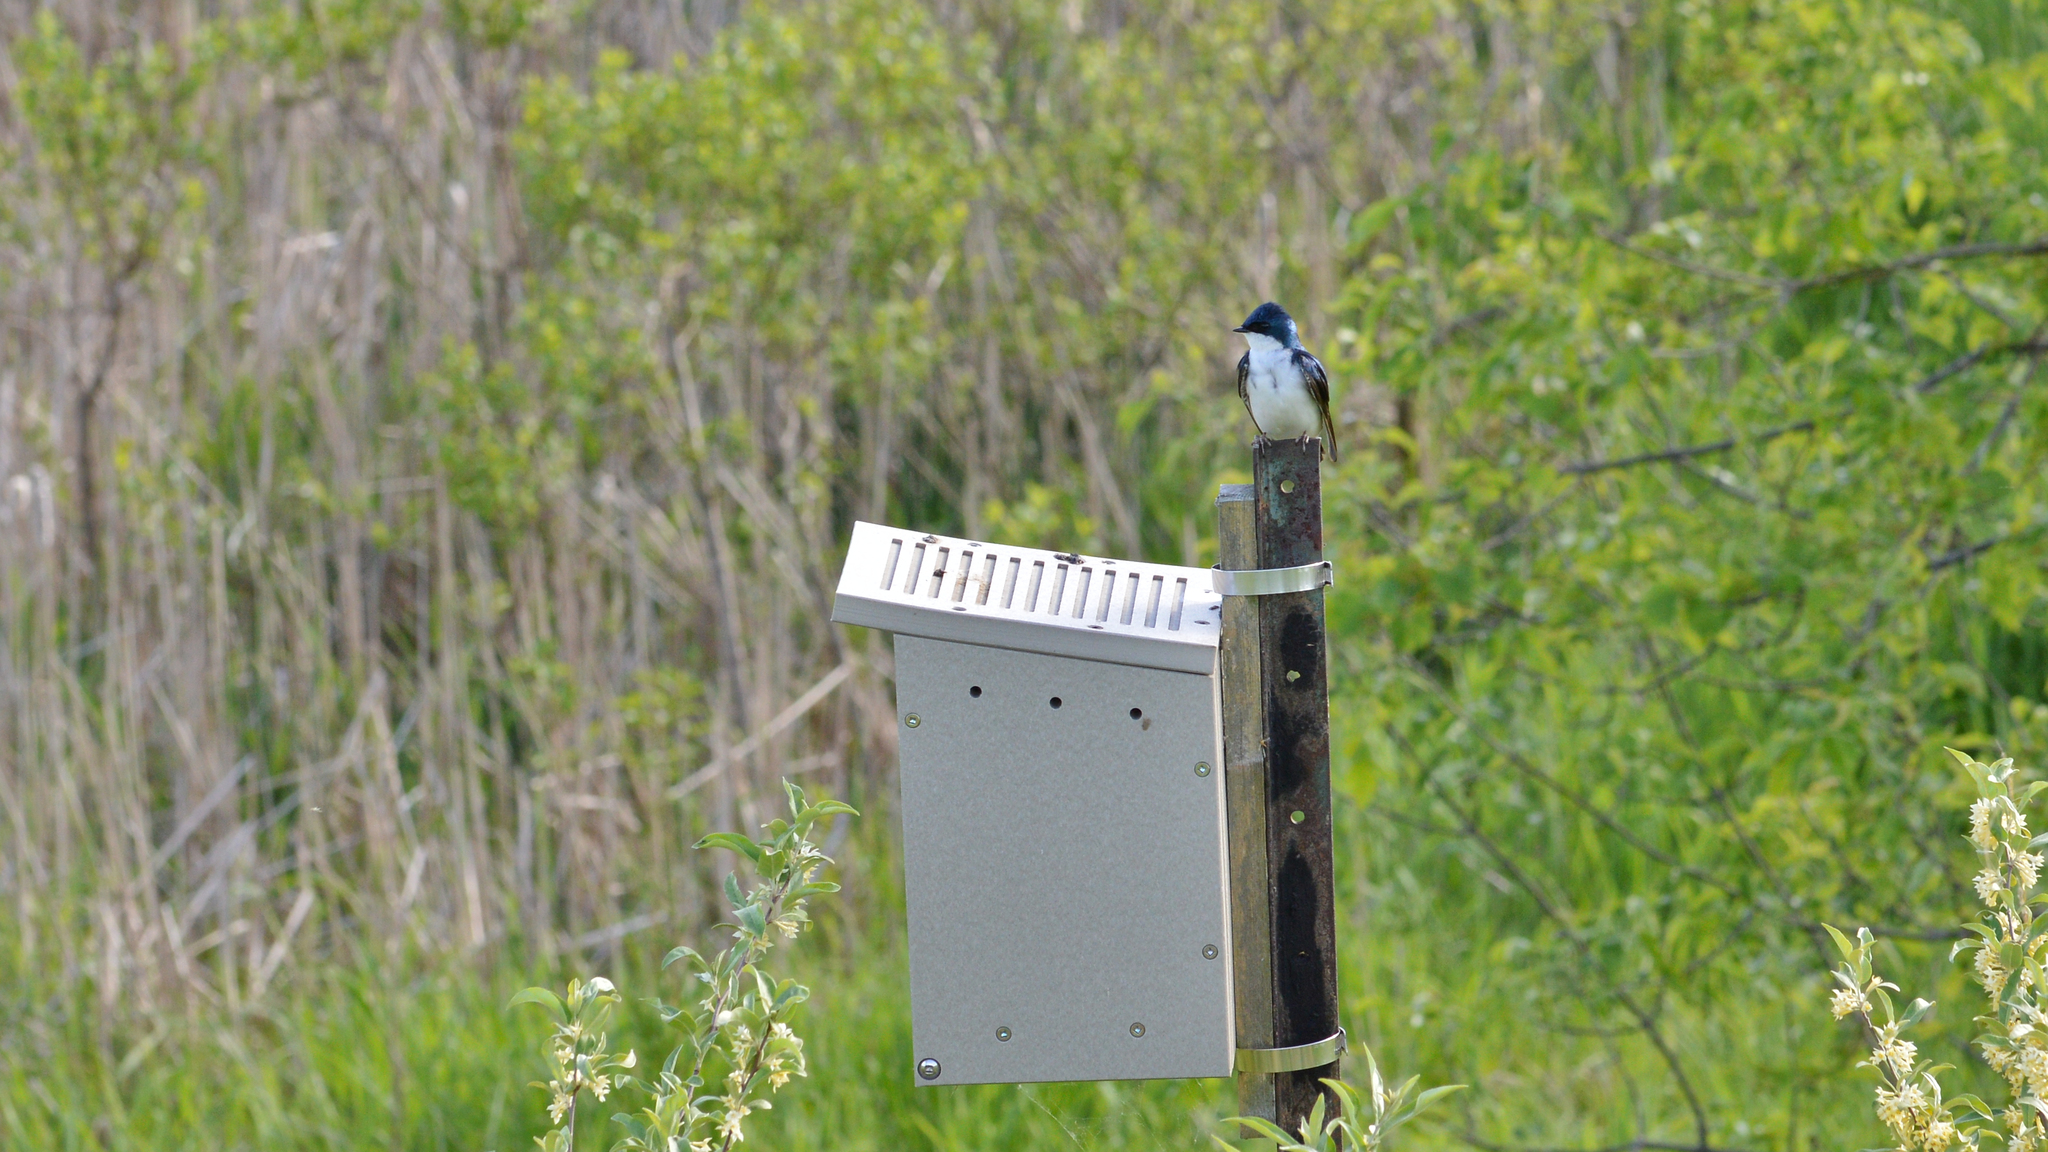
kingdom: Animalia
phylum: Chordata
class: Aves
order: Passeriformes
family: Hirundinidae
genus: Tachycineta
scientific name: Tachycineta bicolor
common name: Tree swallow
